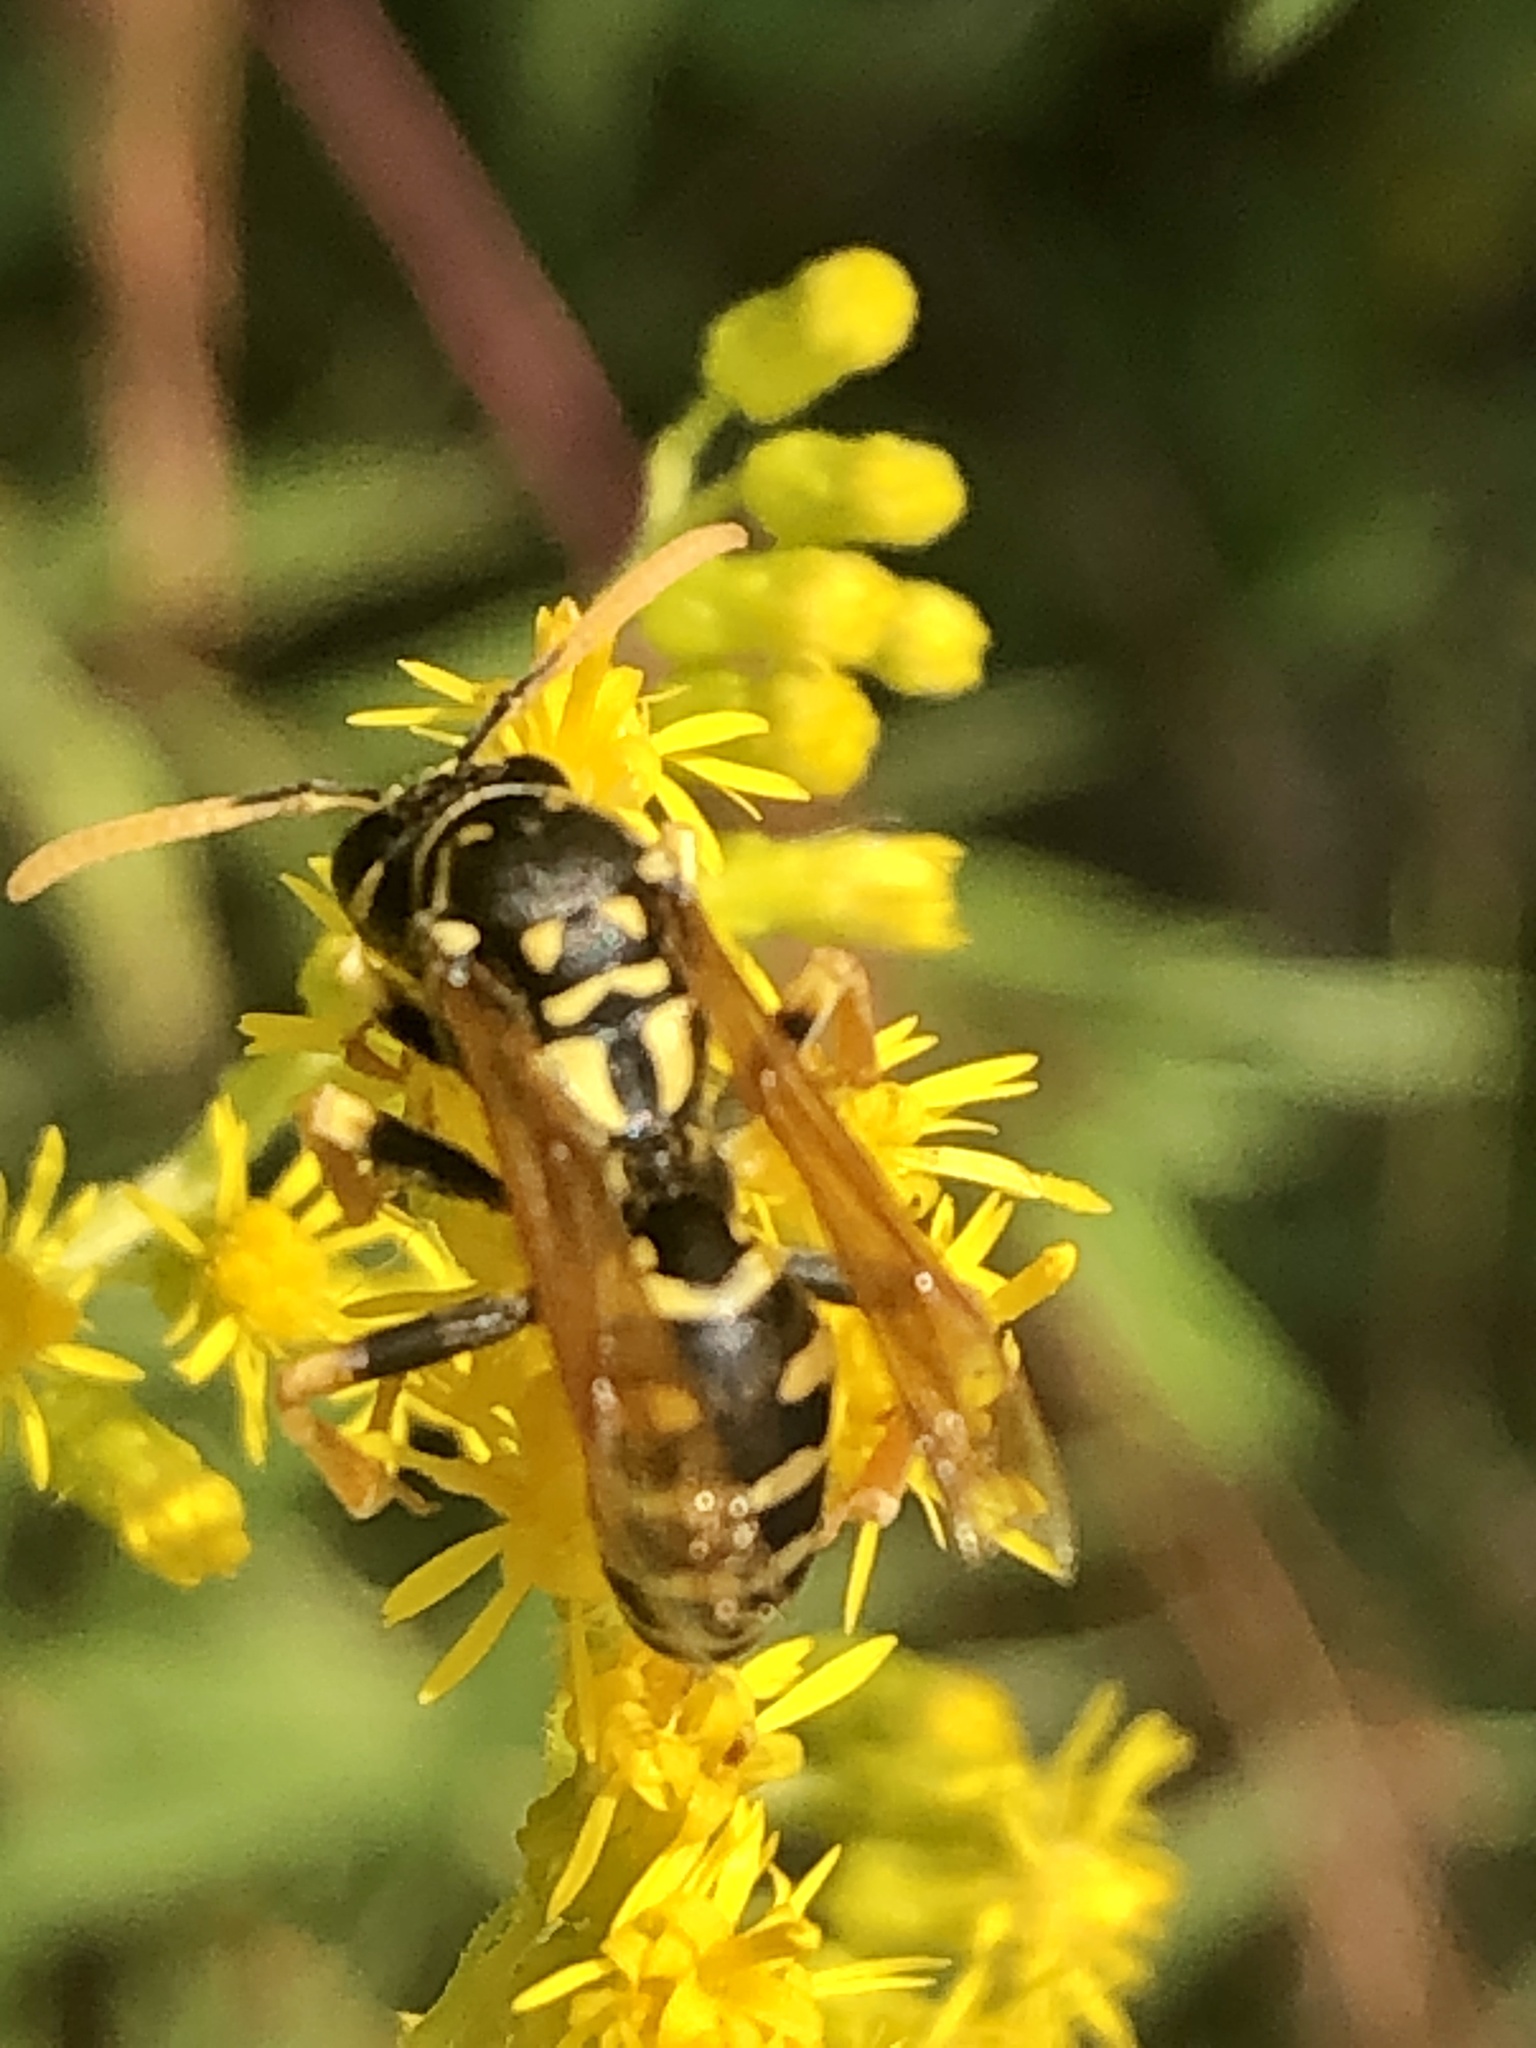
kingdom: Animalia
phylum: Arthropoda
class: Insecta
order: Hymenoptera
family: Eumenidae
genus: Polistes
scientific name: Polistes dominula
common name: Paper wasp
